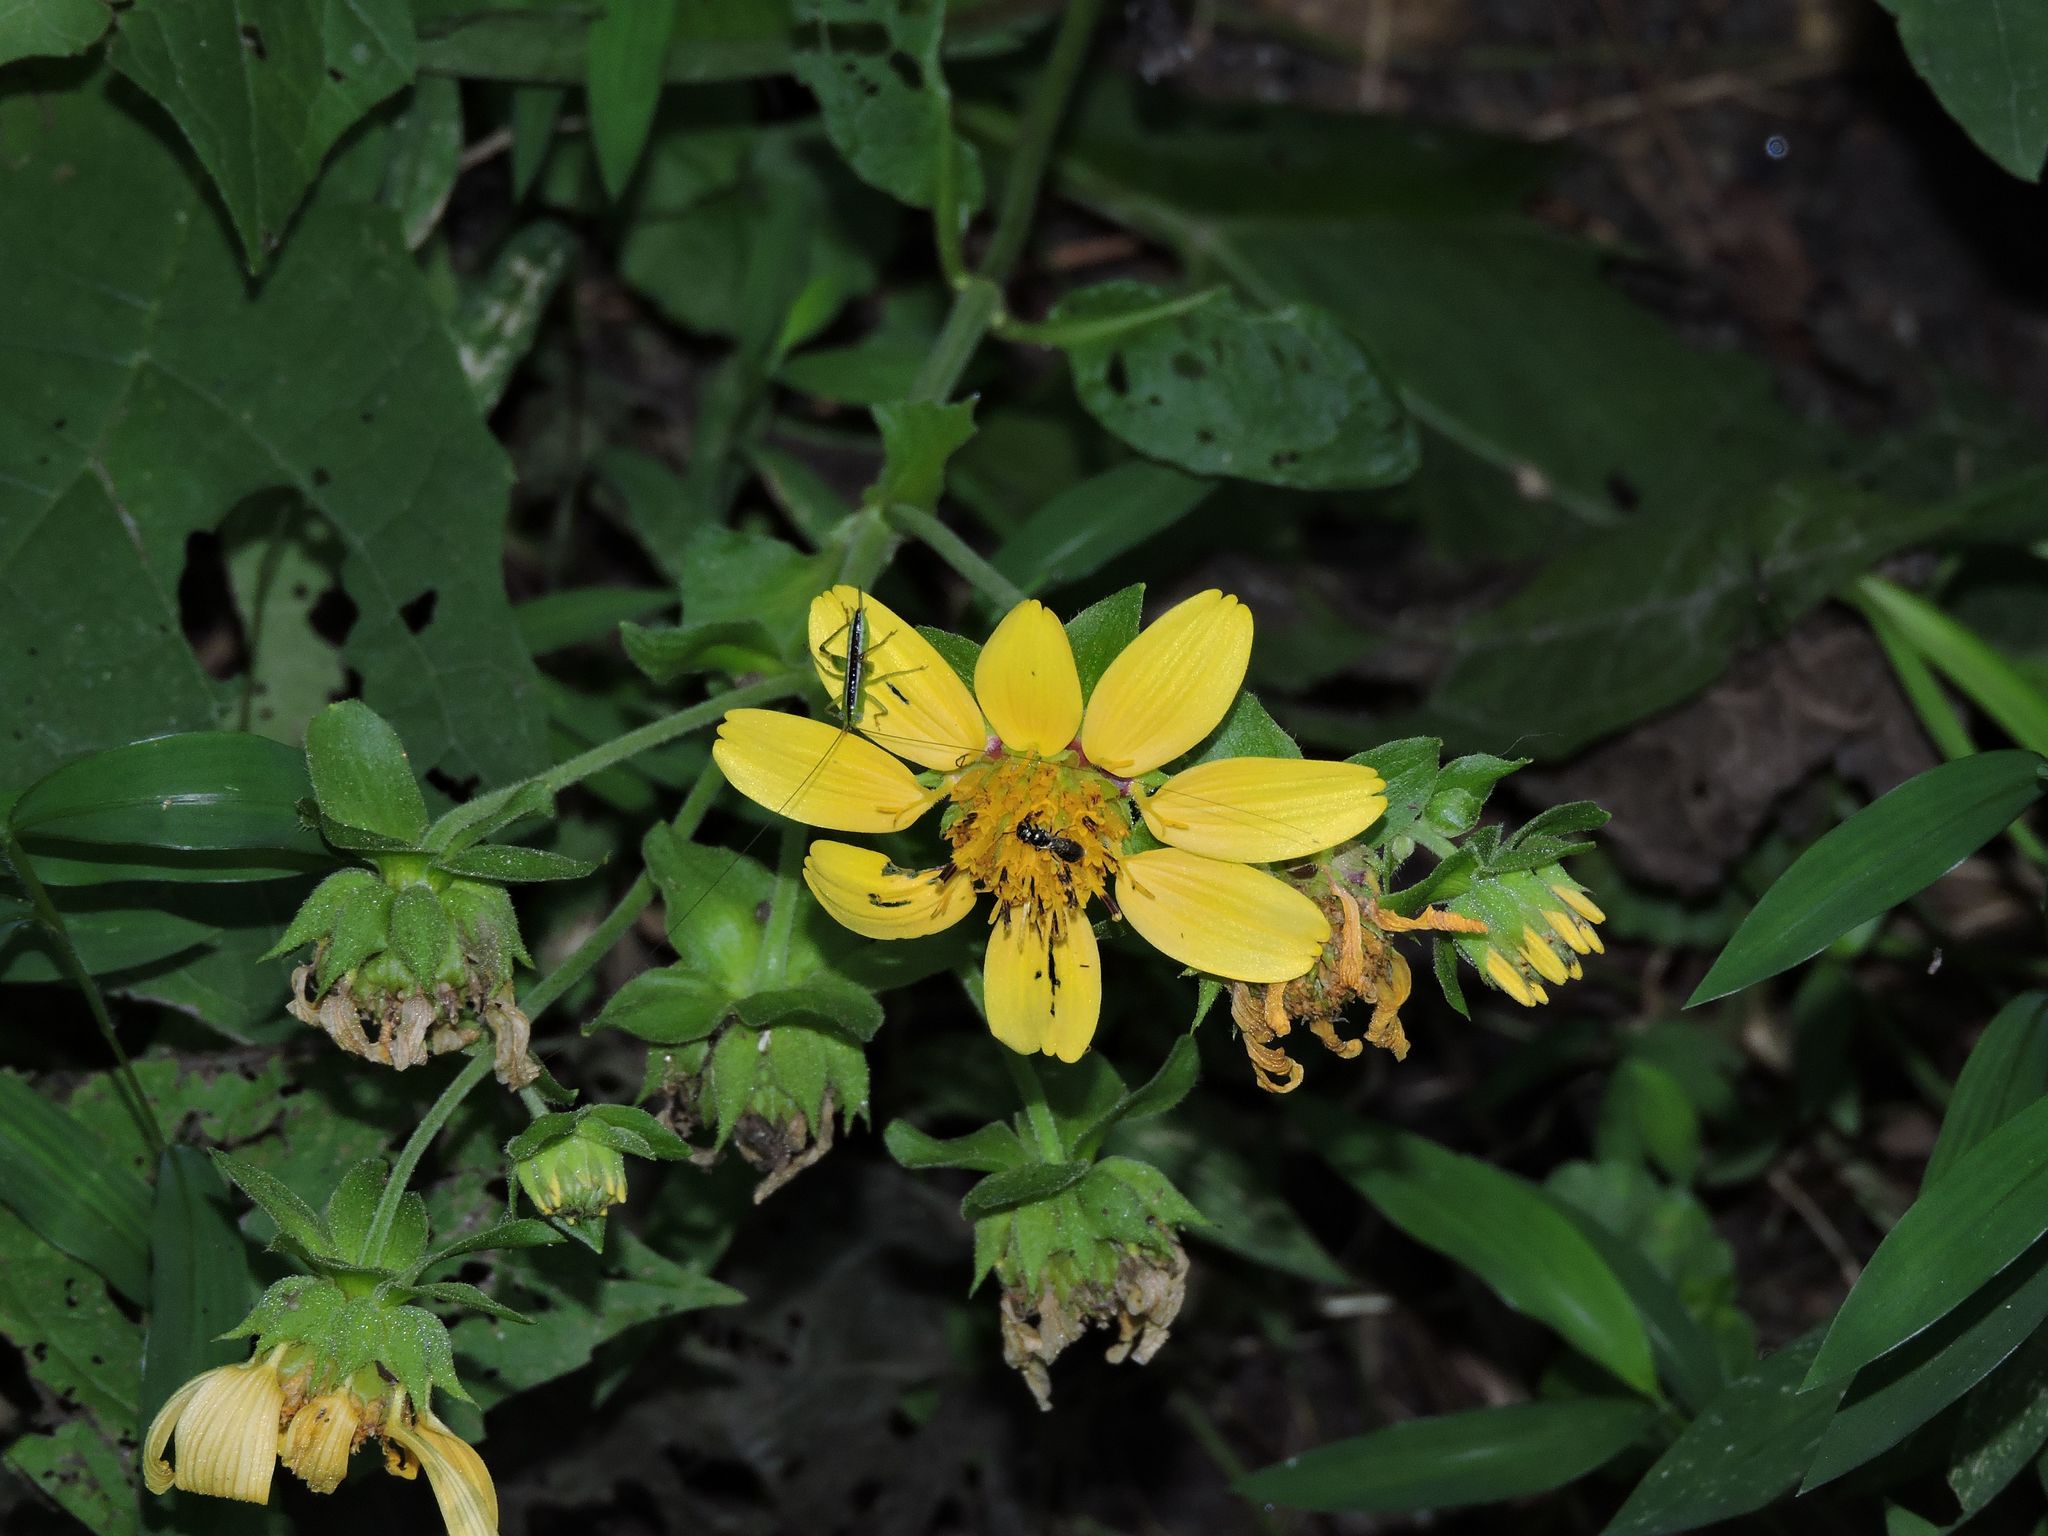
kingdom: Plantae
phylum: Tracheophyta
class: Magnoliopsida
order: Asterales
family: Asteraceae
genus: Smallanthus
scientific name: Smallanthus uvedalia
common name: Bear's-foot
